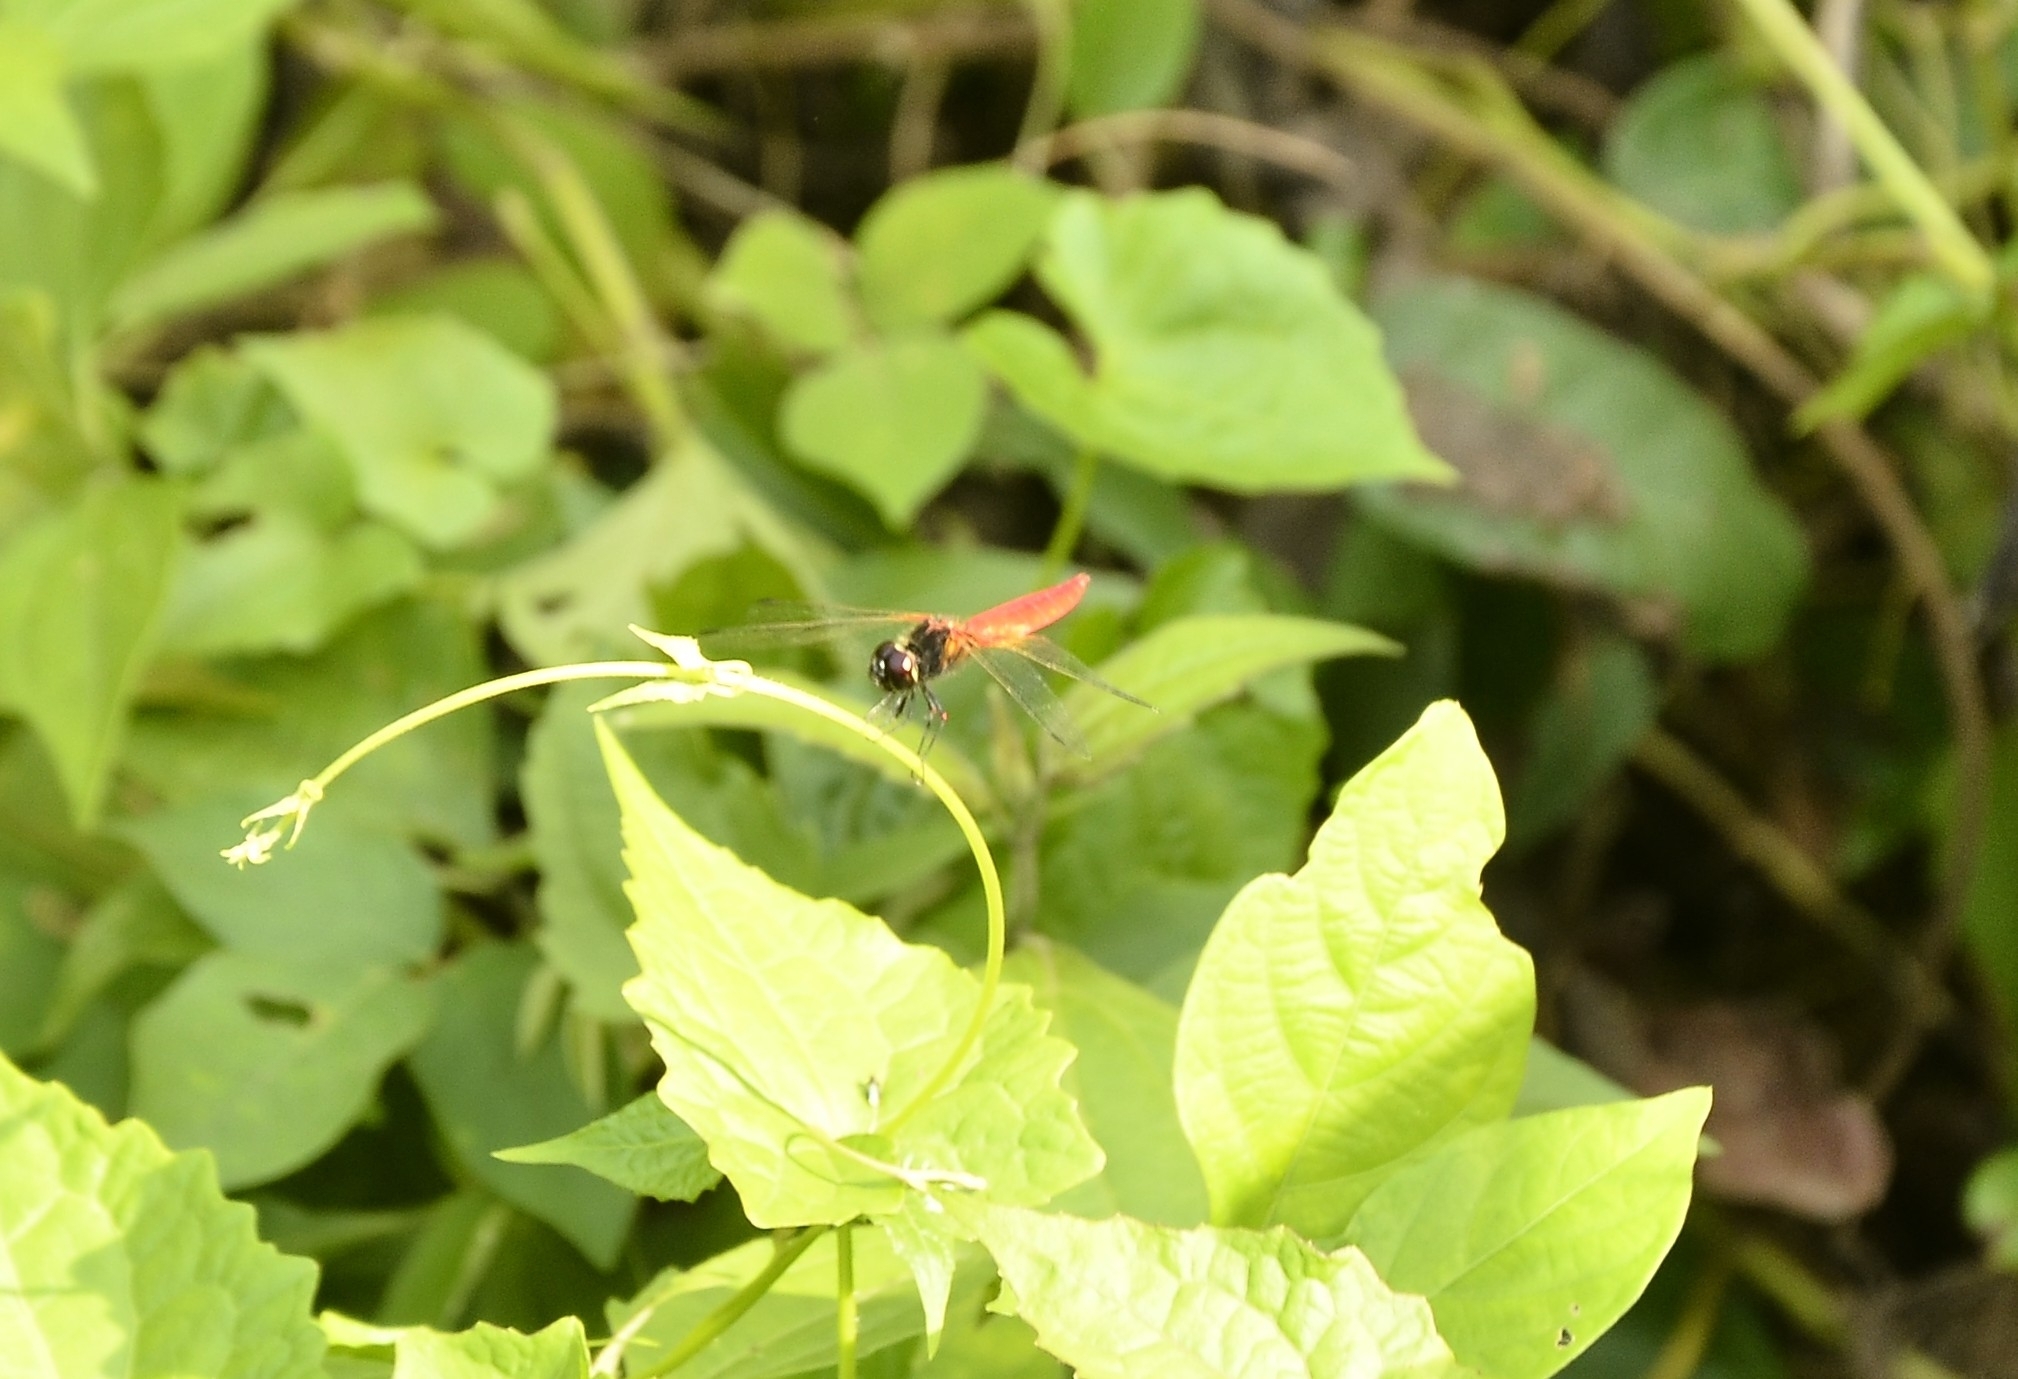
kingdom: Animalia
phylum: Arthropoda
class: Insecta
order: Odonata
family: Libellulidae
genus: Aethriamanta
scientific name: Aethriamanta brevipennis
